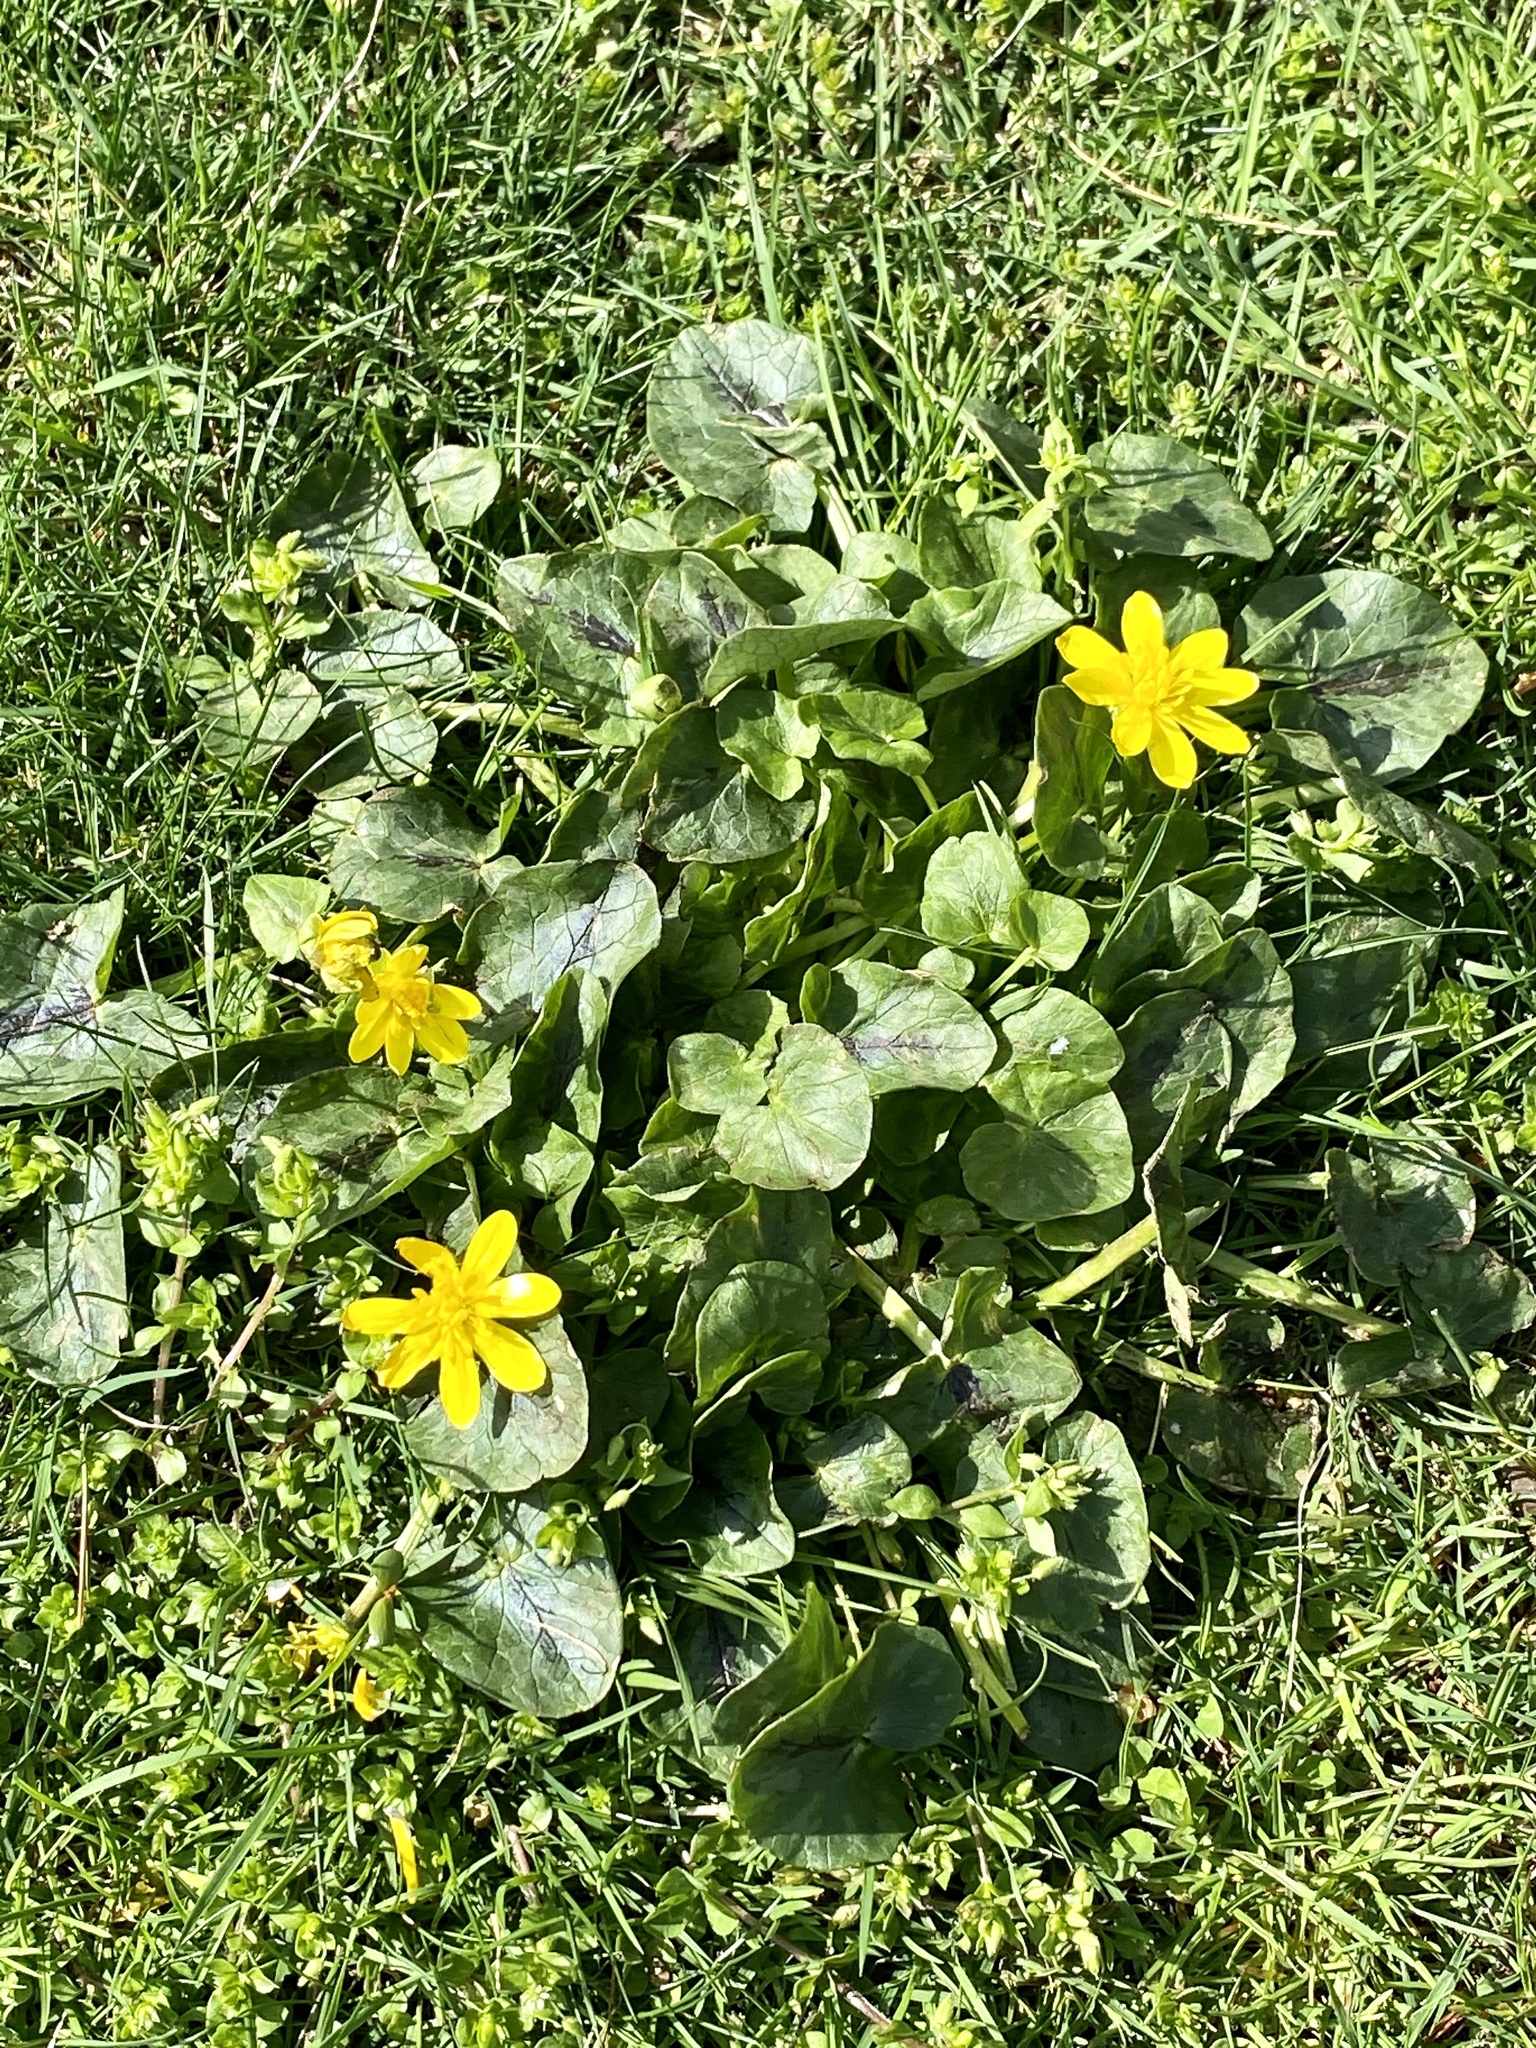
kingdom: Plantae
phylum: Tracheophyta
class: Magnoliopsida
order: Ranunculales
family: Ranunculaceae
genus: Ficaria
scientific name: Ficaria verna
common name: Lesser celandine
